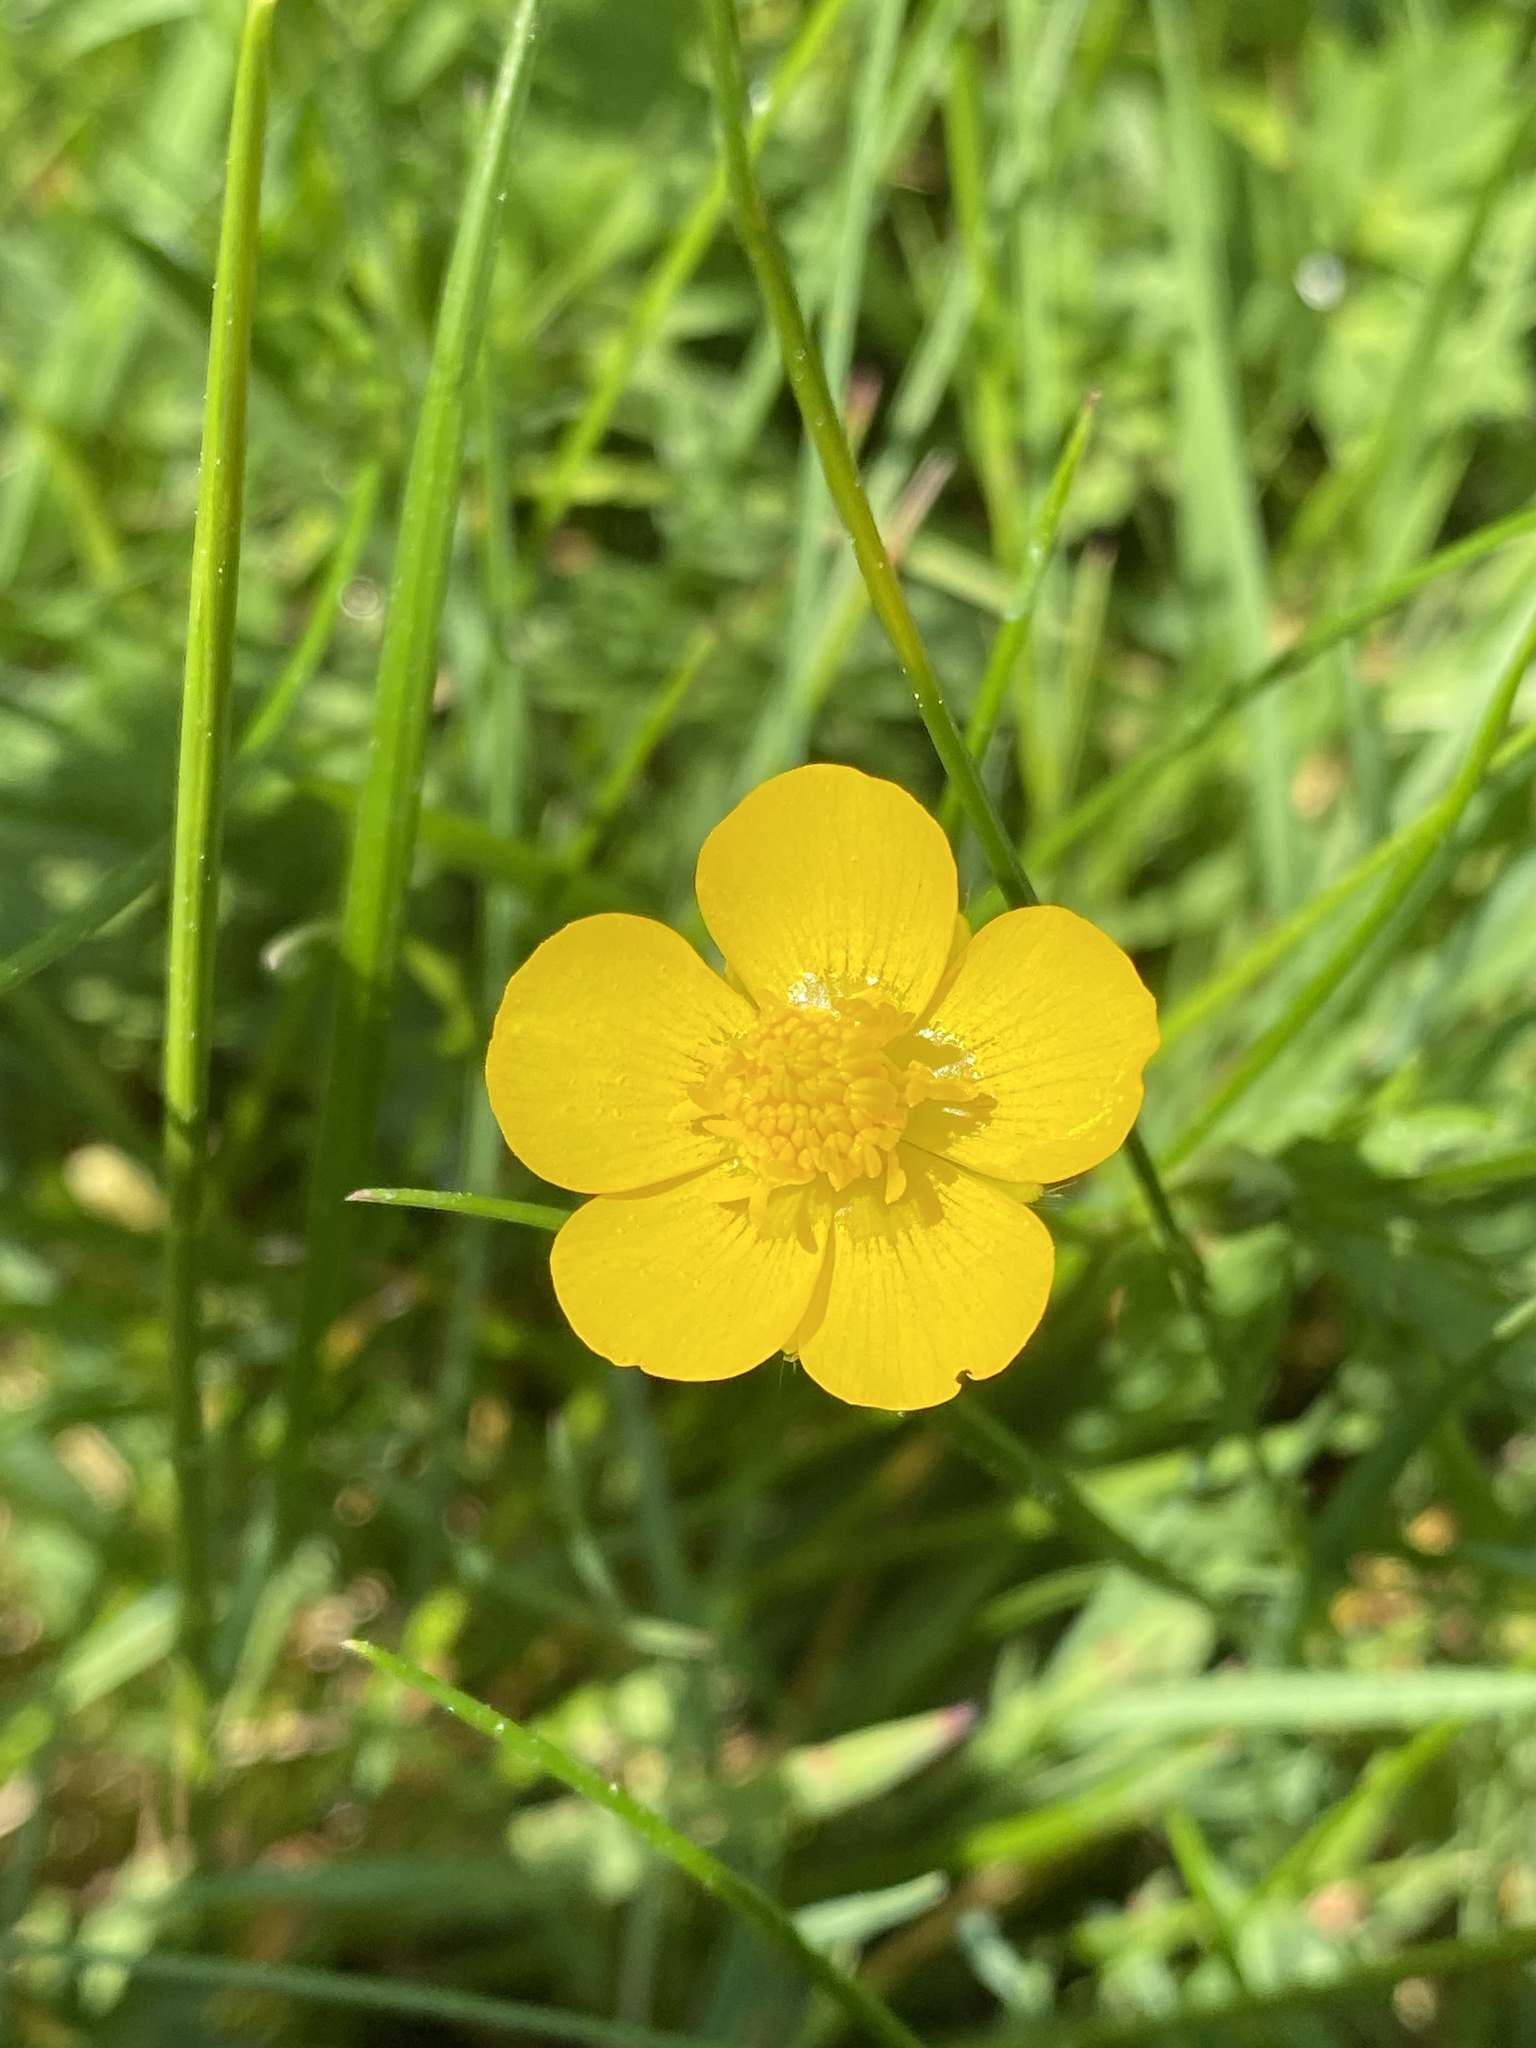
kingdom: Plantae
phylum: Tracheophyta
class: Magnoliopsida
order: Ranunculales
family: Ranunculaceae
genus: Ranunculus
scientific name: Ranunculus repens
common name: Creeping buttercup
